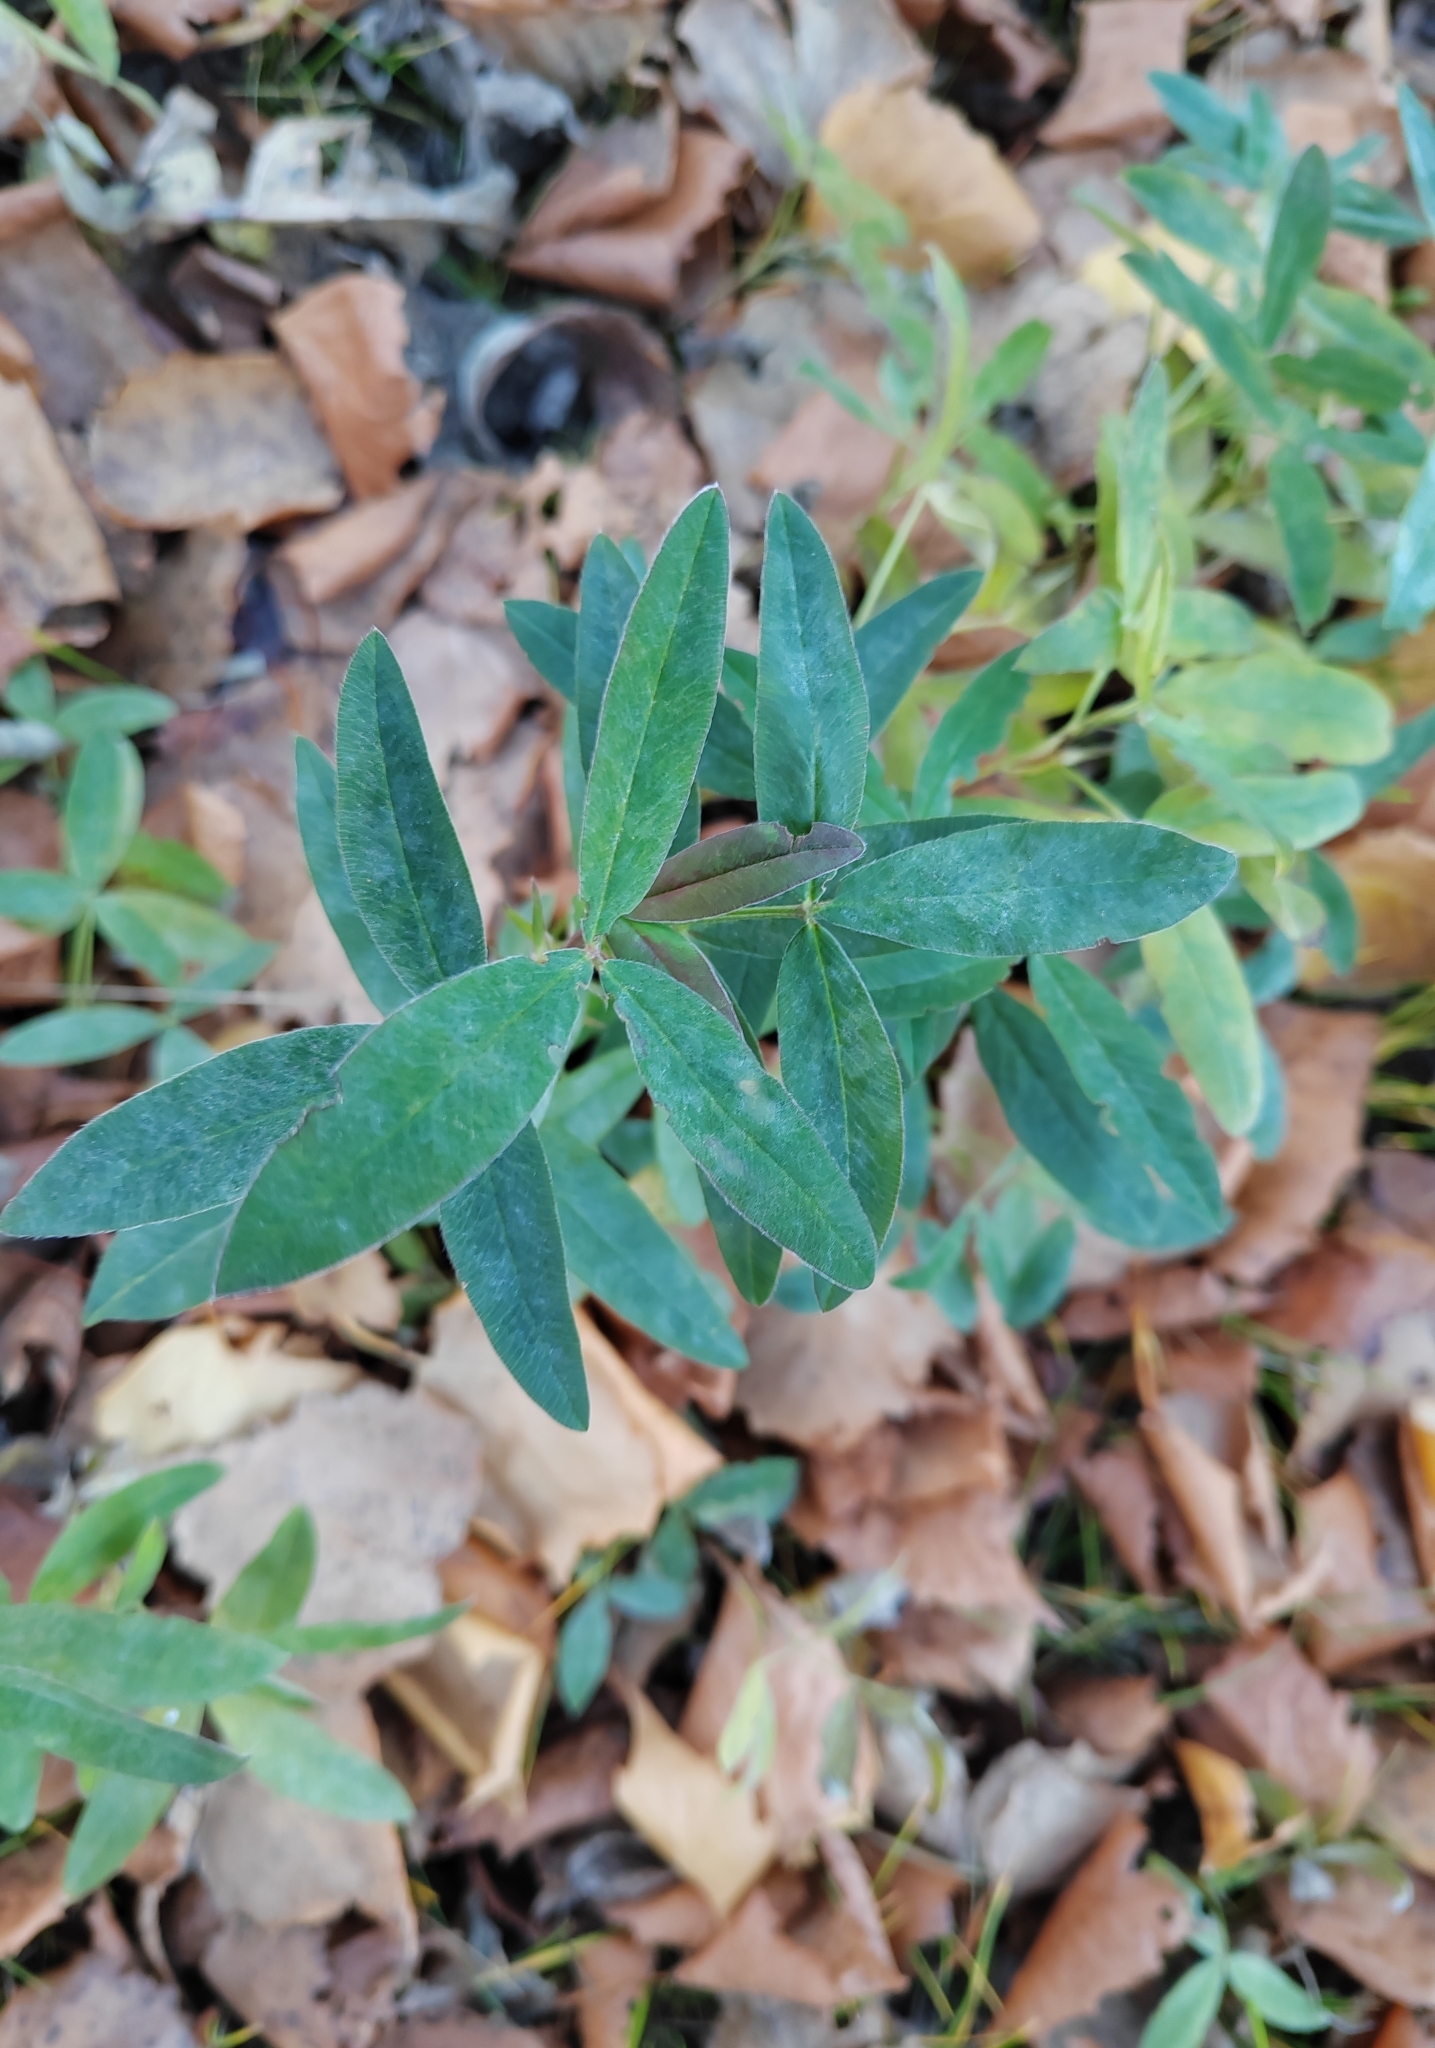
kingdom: Plantae
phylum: Tracheophyta
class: Magnoliopsida
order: Fabales
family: Fabaceae
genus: Trifolium
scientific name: Trifolium medium
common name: Zigzag clover
